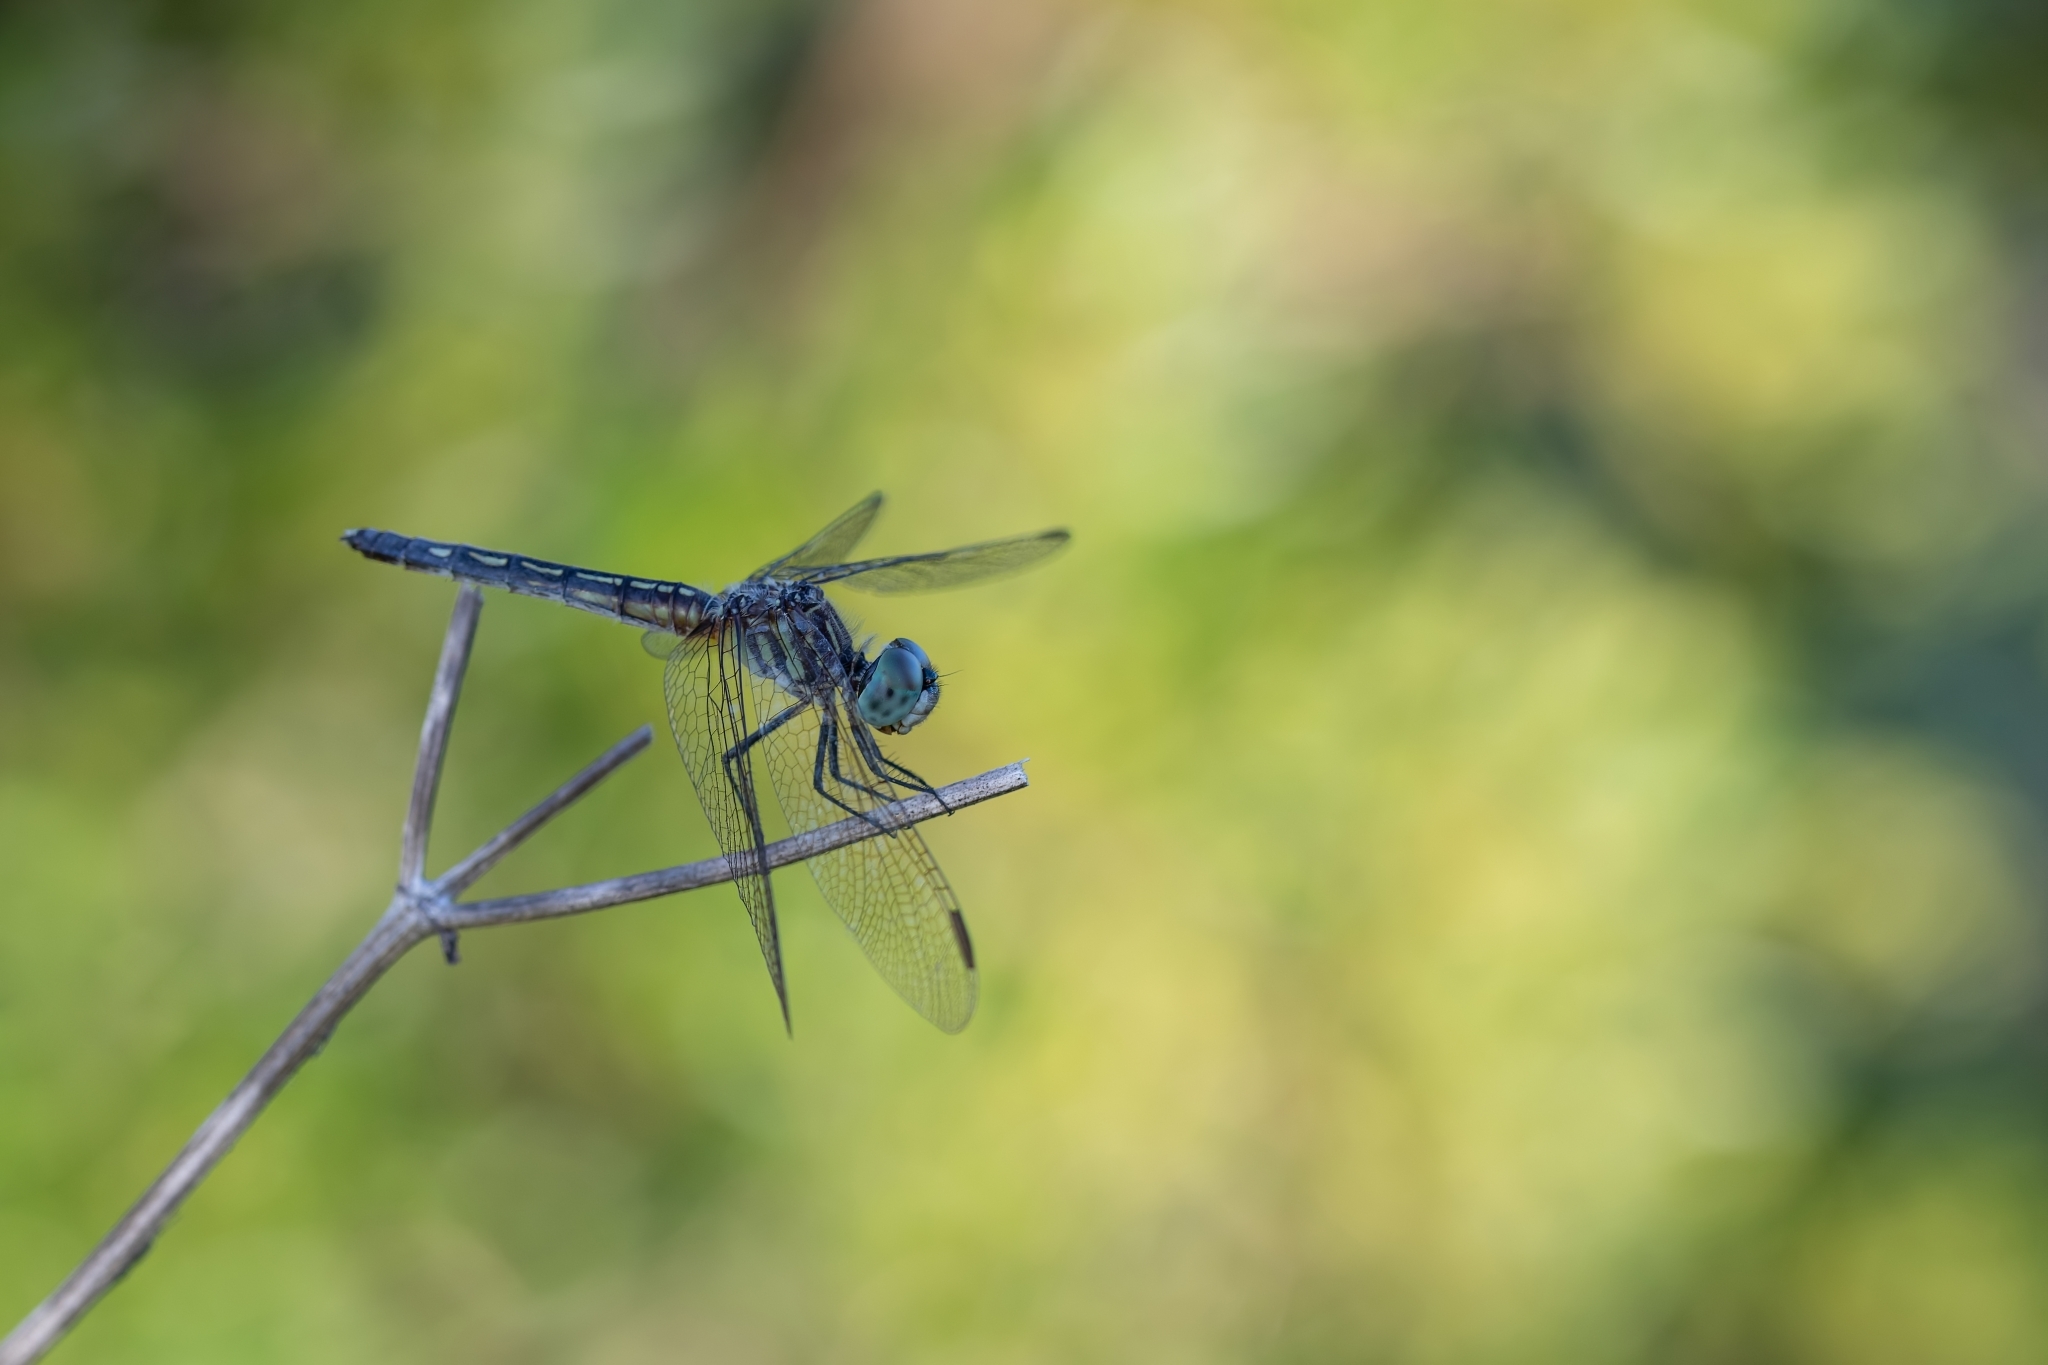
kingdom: Animalia
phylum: Arthropoda
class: Insecta
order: Odonata
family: Libellulidae
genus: Pachydiplax
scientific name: Pachydiplax longipennis
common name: Blue dasher
